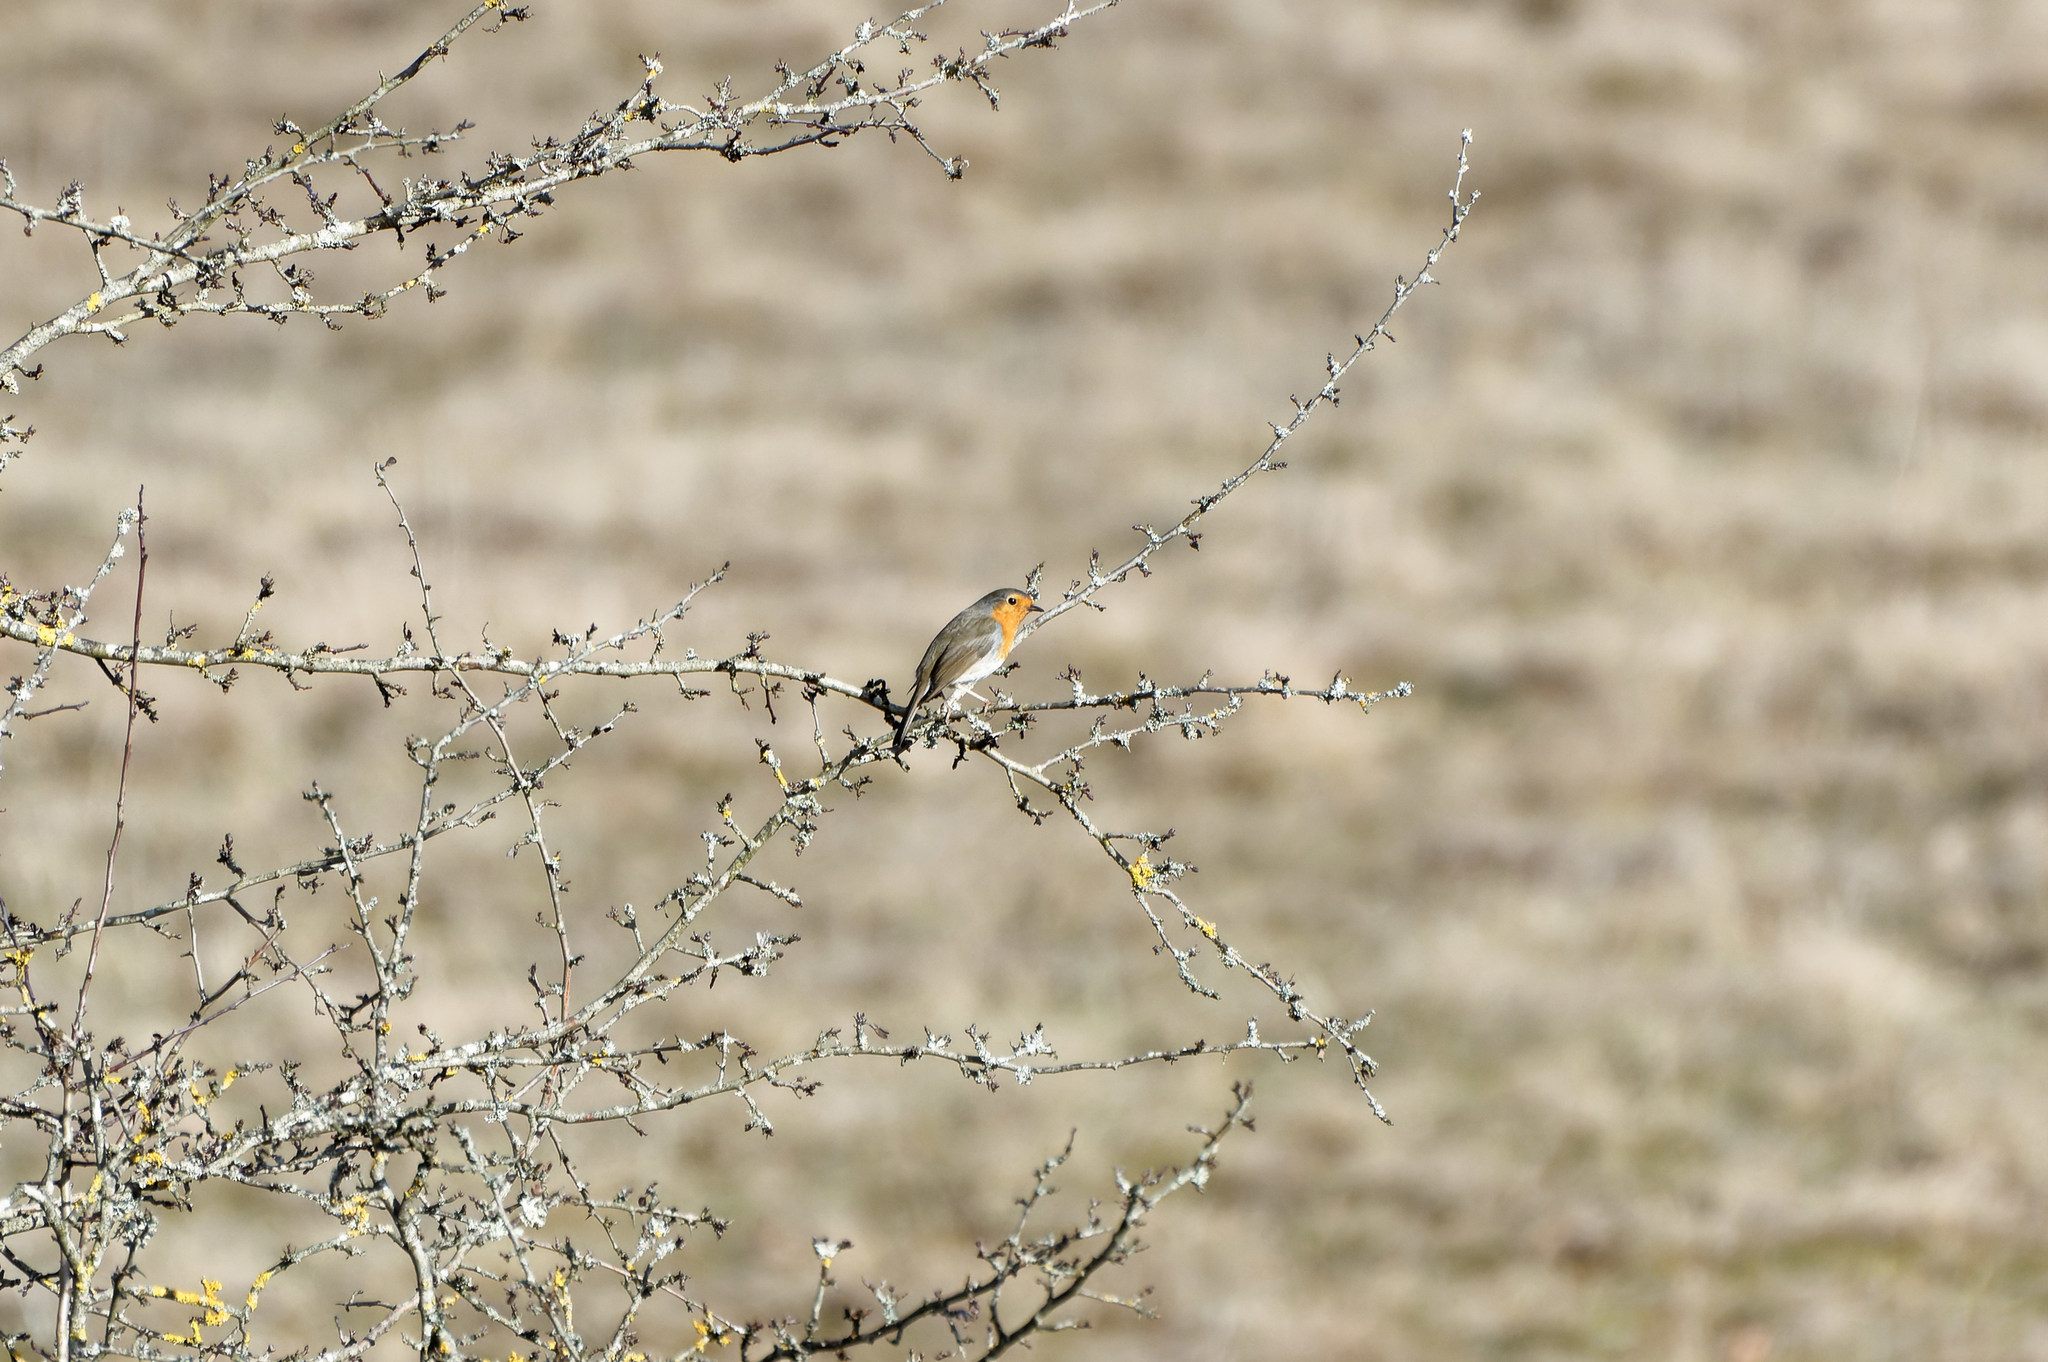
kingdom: Animalia
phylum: Chordata
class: Aves
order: Passeriformes
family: Muscicapidae
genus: Erithacus
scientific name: Erithacus rubecula
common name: European robin
